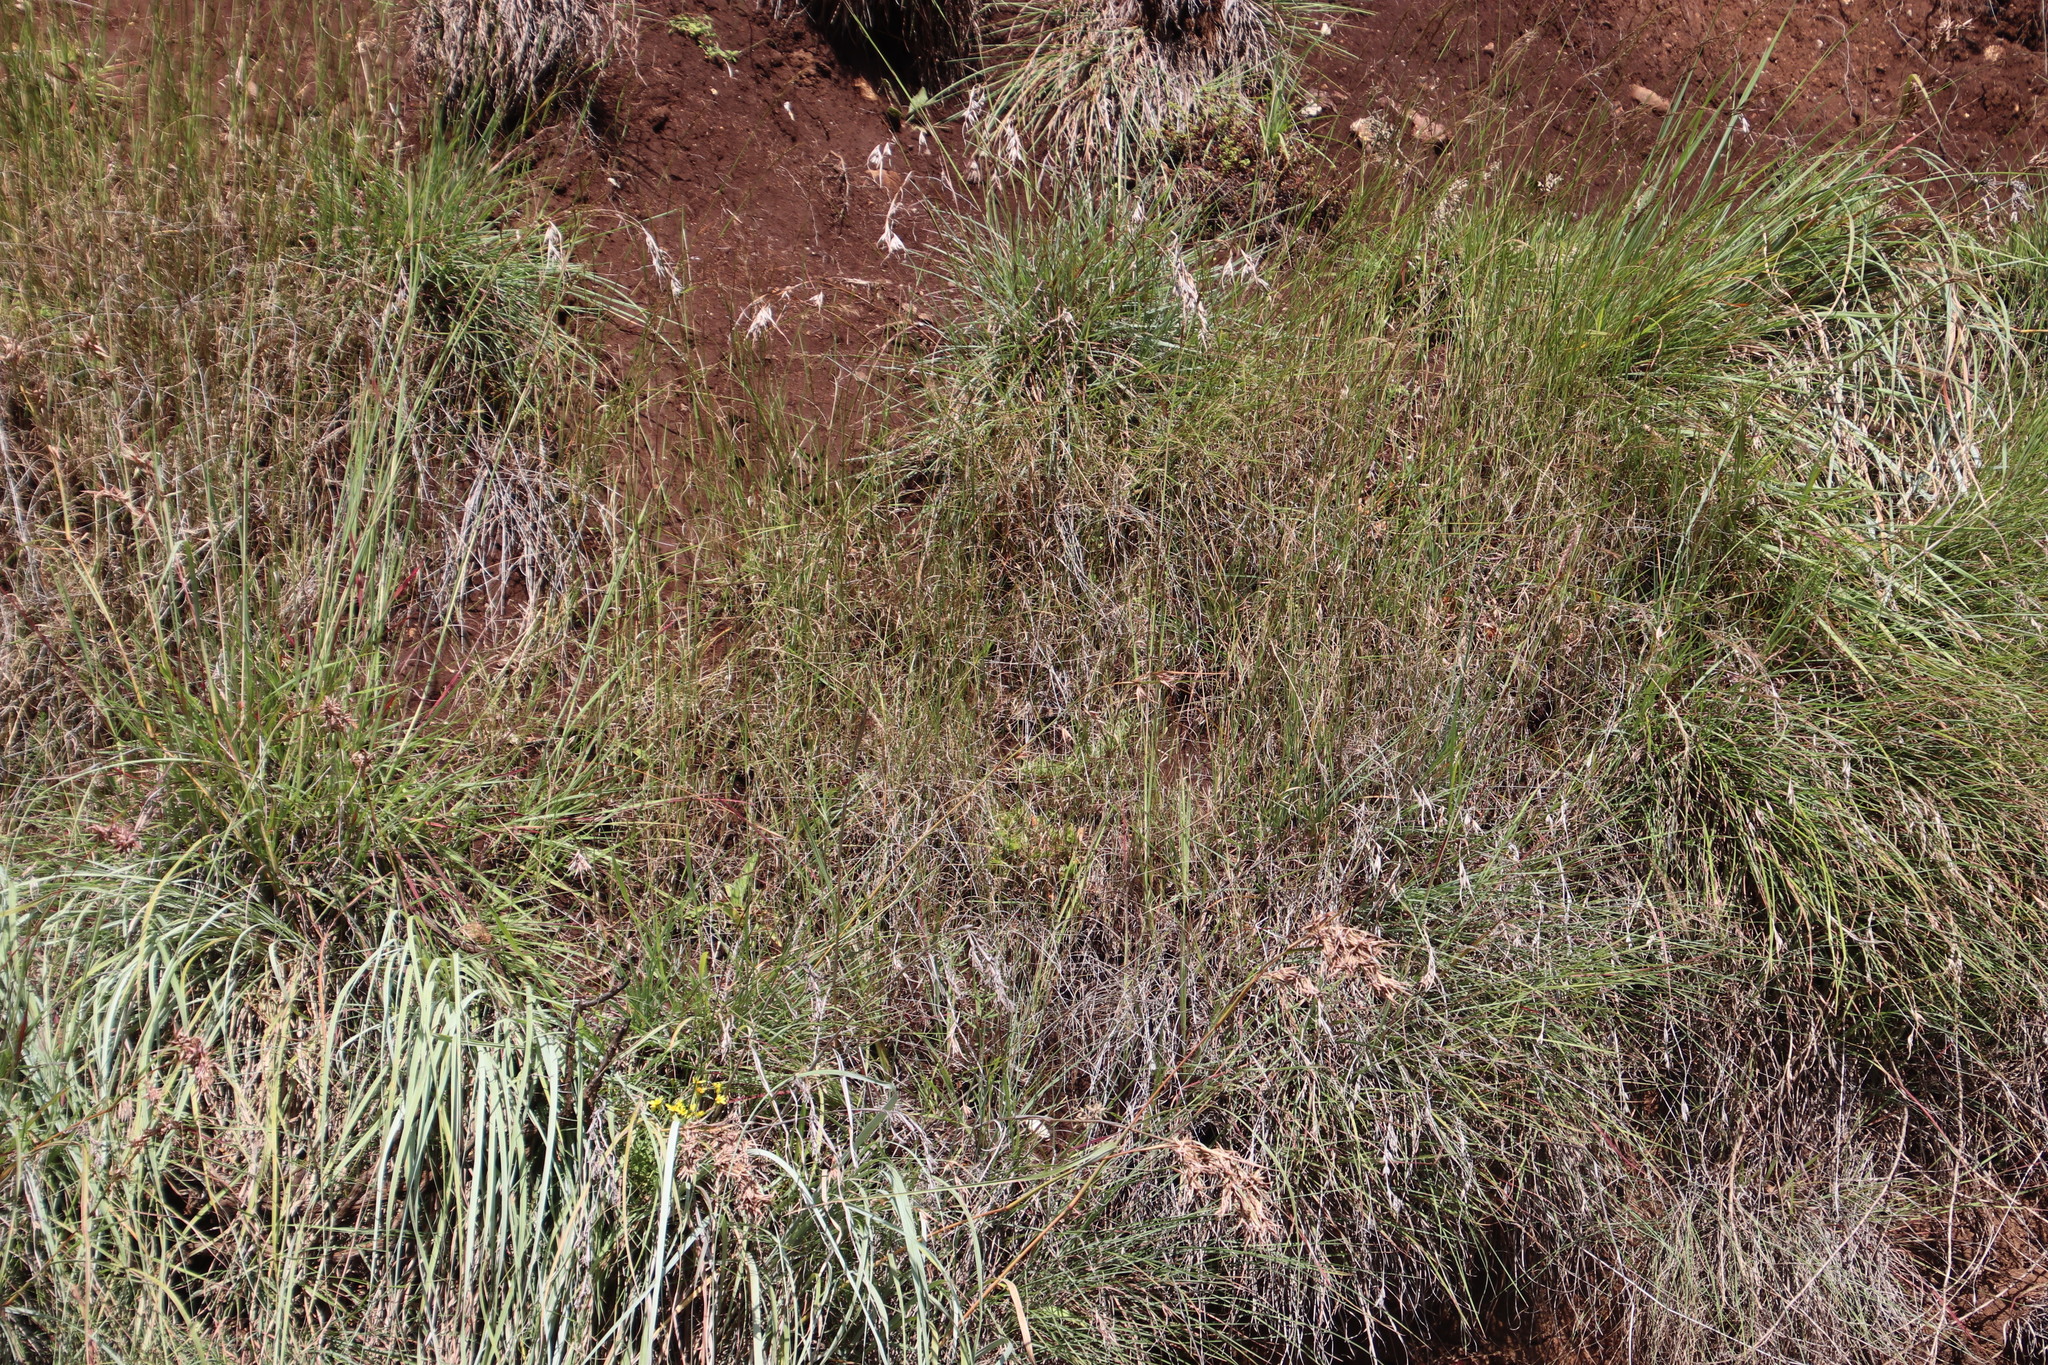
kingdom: Plantae
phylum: Tracheophyta
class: Liliopsida
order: Poales
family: Poaceae
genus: Themeda
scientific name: Themeda triandra
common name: Kangaroo grass
